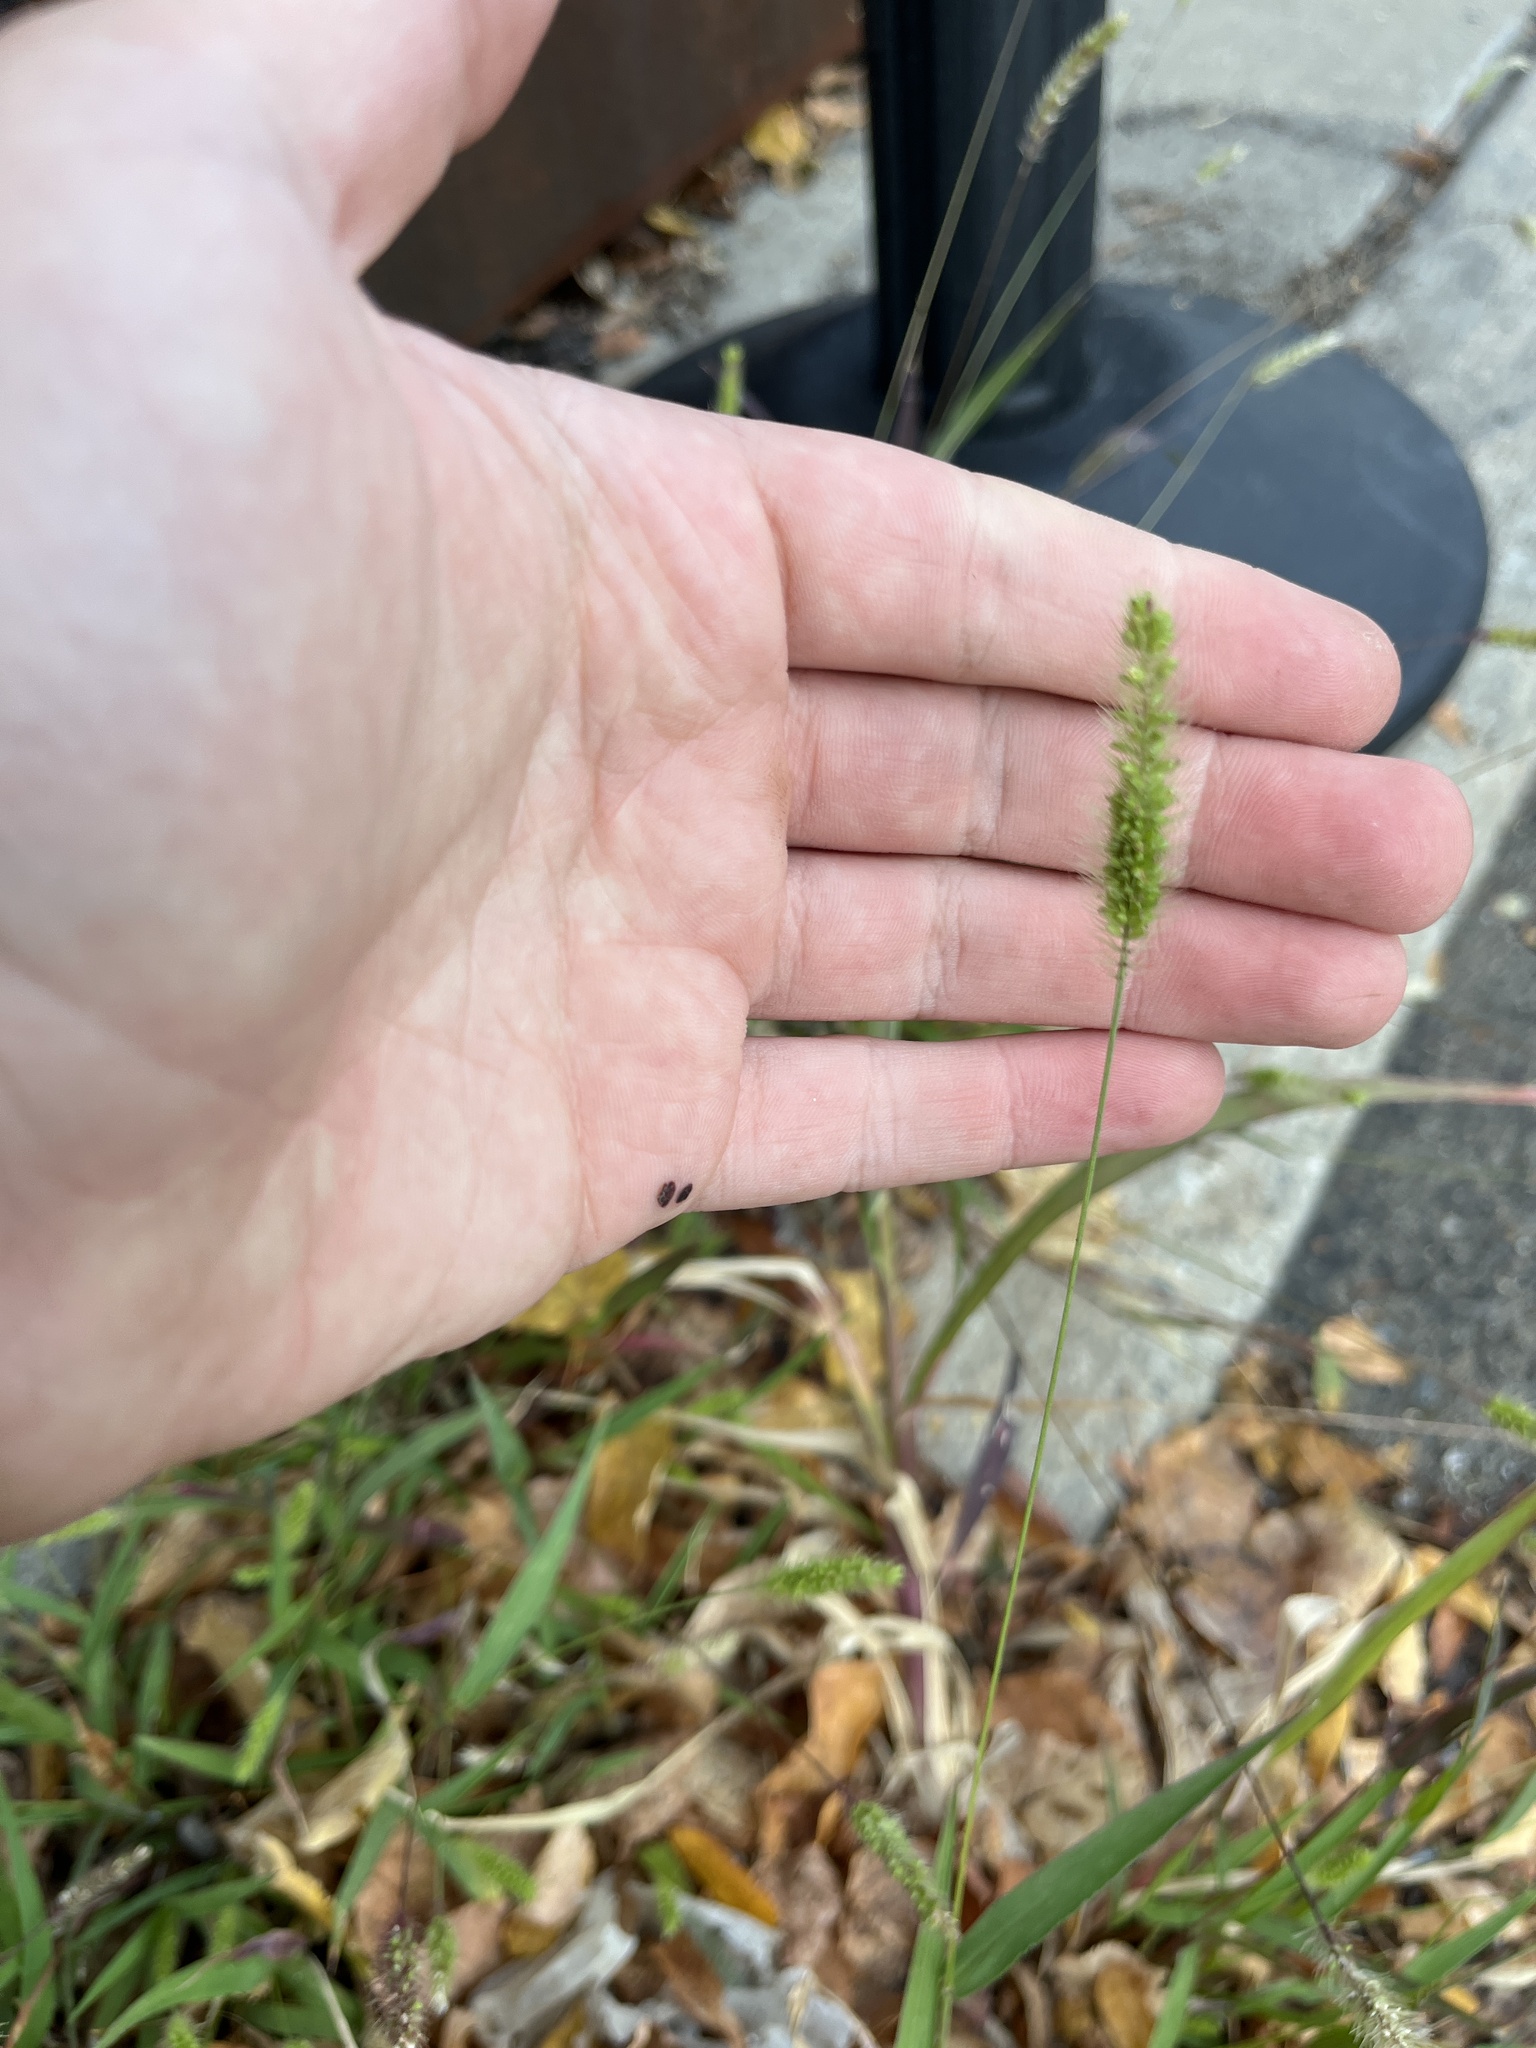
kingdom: Plantae
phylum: Tracheophyta
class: Liliopsida
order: Poales
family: Poaceae
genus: Setaria
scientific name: Setaria viridis
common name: Green bristlegrass
